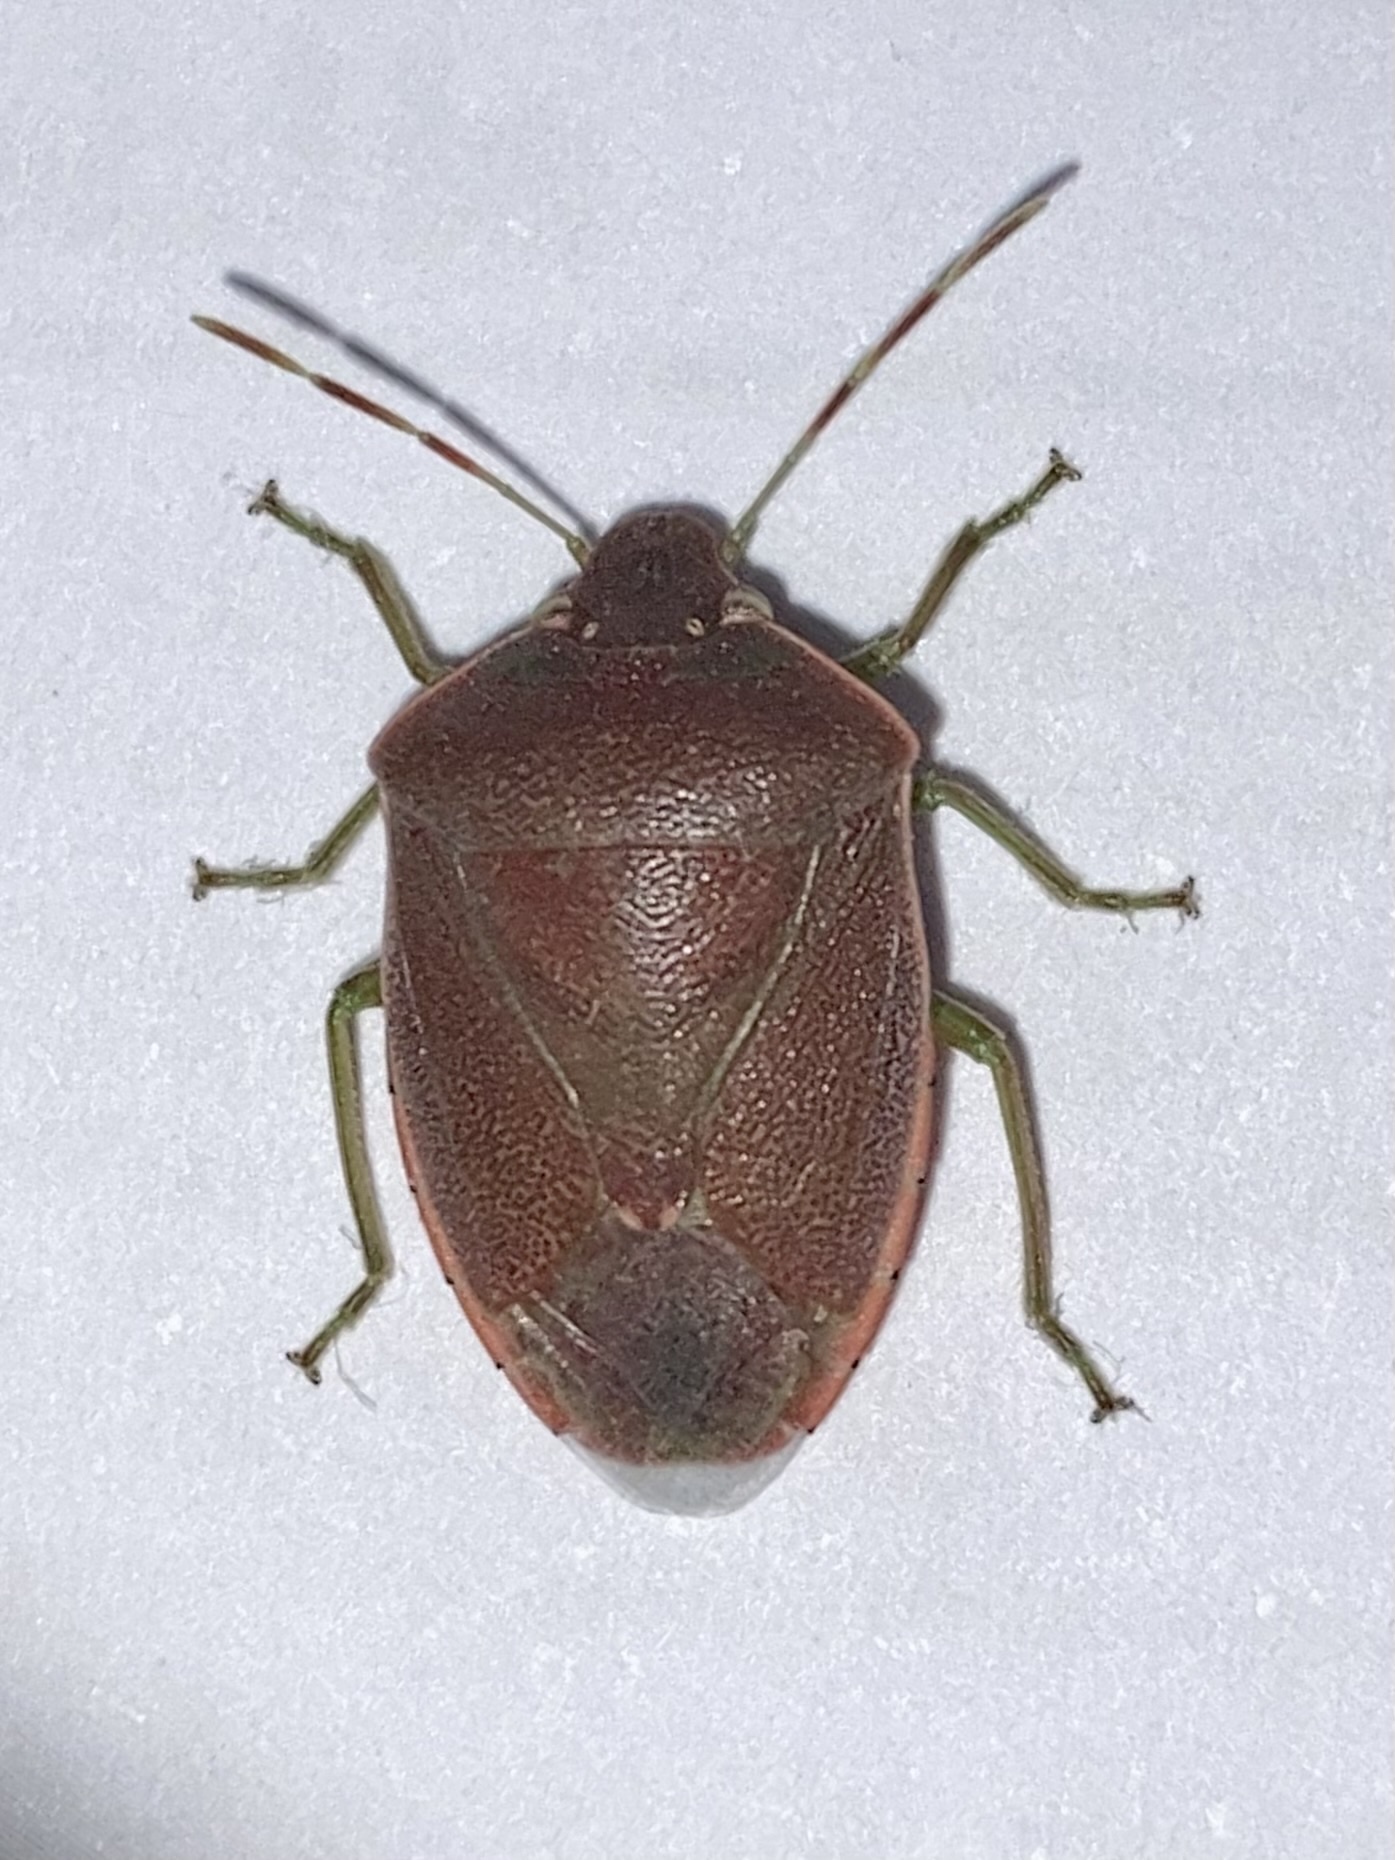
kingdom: Animalia
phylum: Arthropoda
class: Insecta
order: Hemiptera
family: Pentatomidae
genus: Acrosternum
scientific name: Acrosternum heegeri
